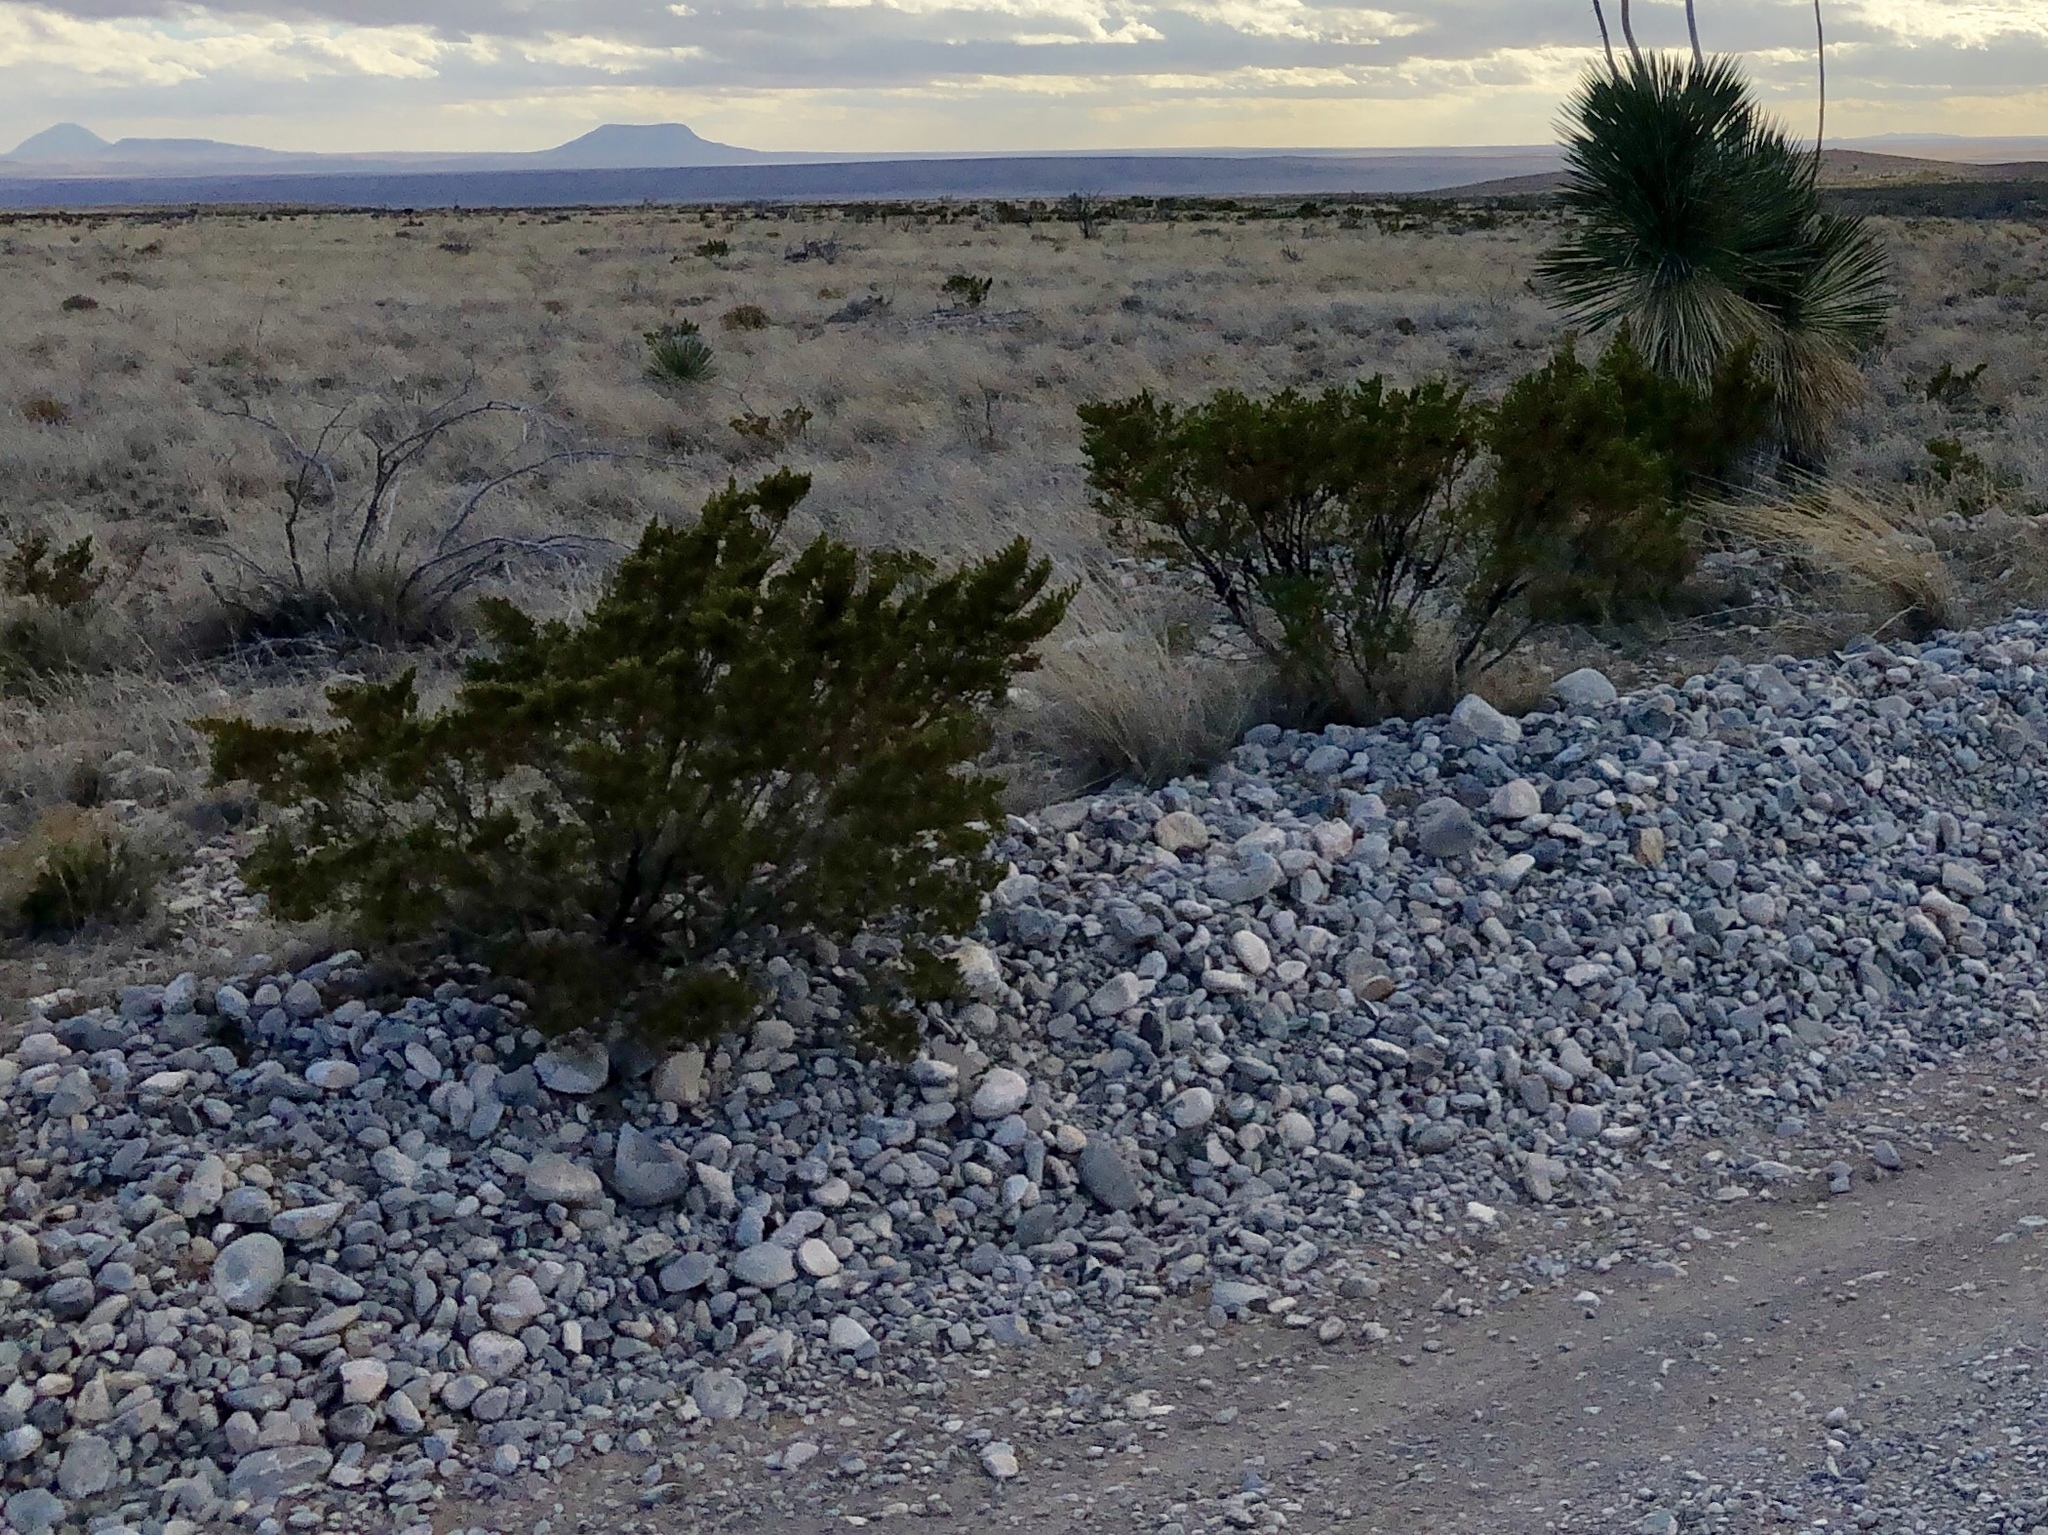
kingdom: Plantae
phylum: Tracheophyta
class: Magnoliopsida
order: Zygophyllales
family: Zygophyllaceae
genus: Larrea
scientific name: Larrea tridentata
